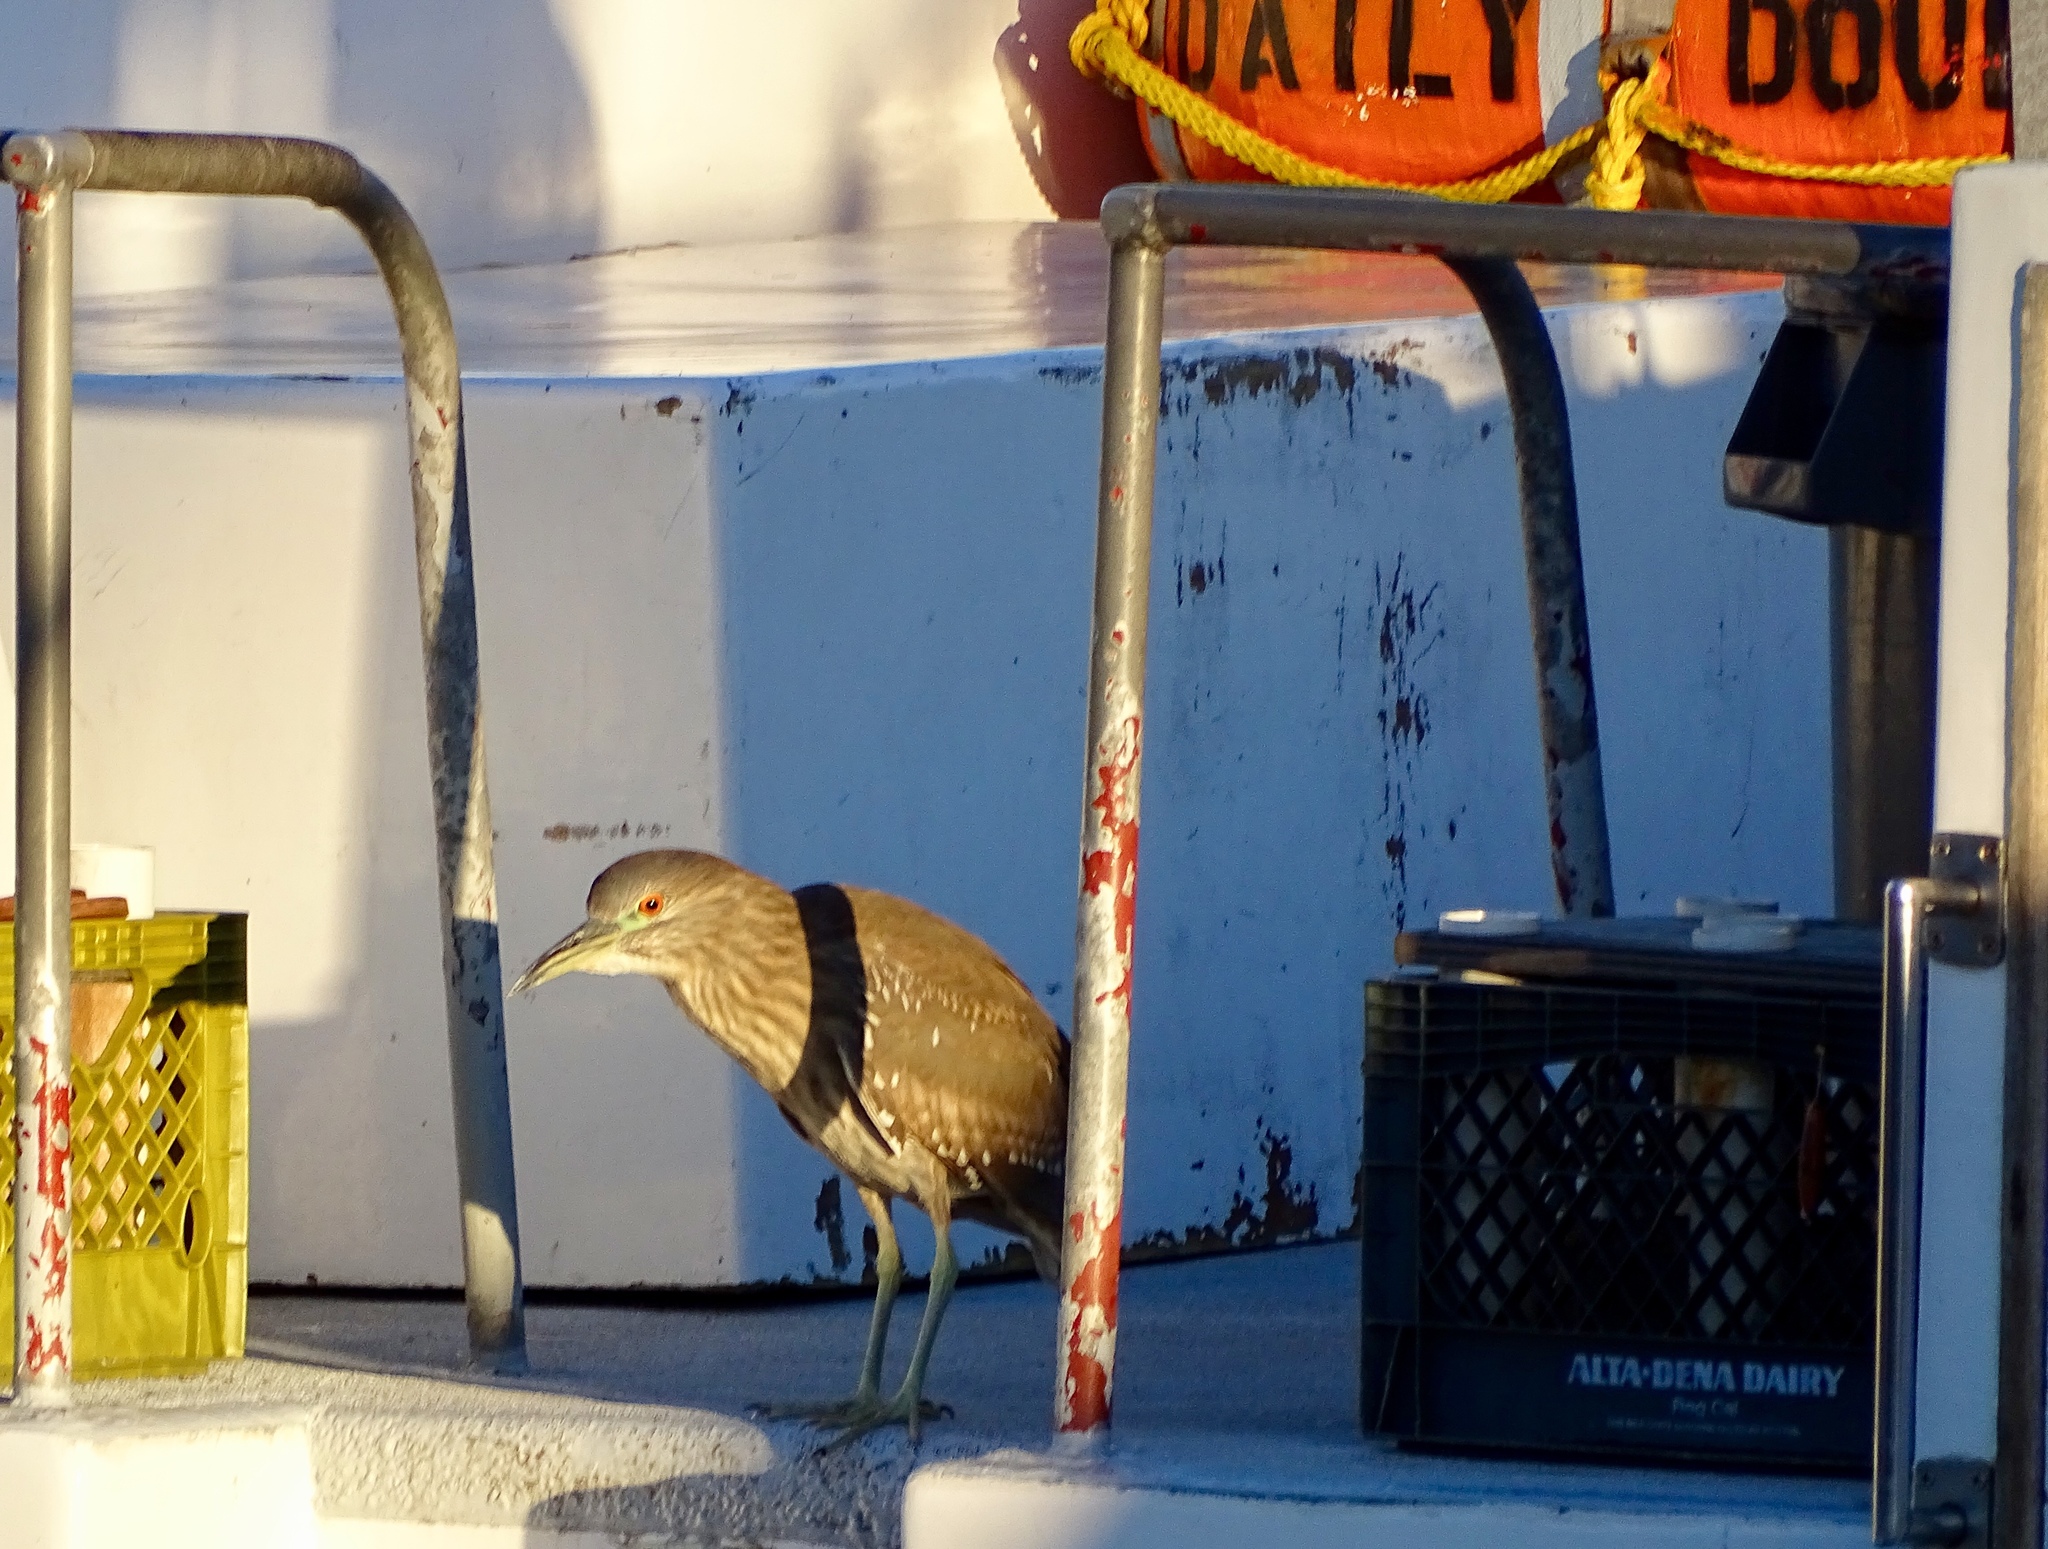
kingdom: Animalia
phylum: Chordata
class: Aves
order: Pelecaniformes
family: Ardeidae
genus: Nycticorax
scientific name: Nycticorax nycticorax
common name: Black-crowned night heron
